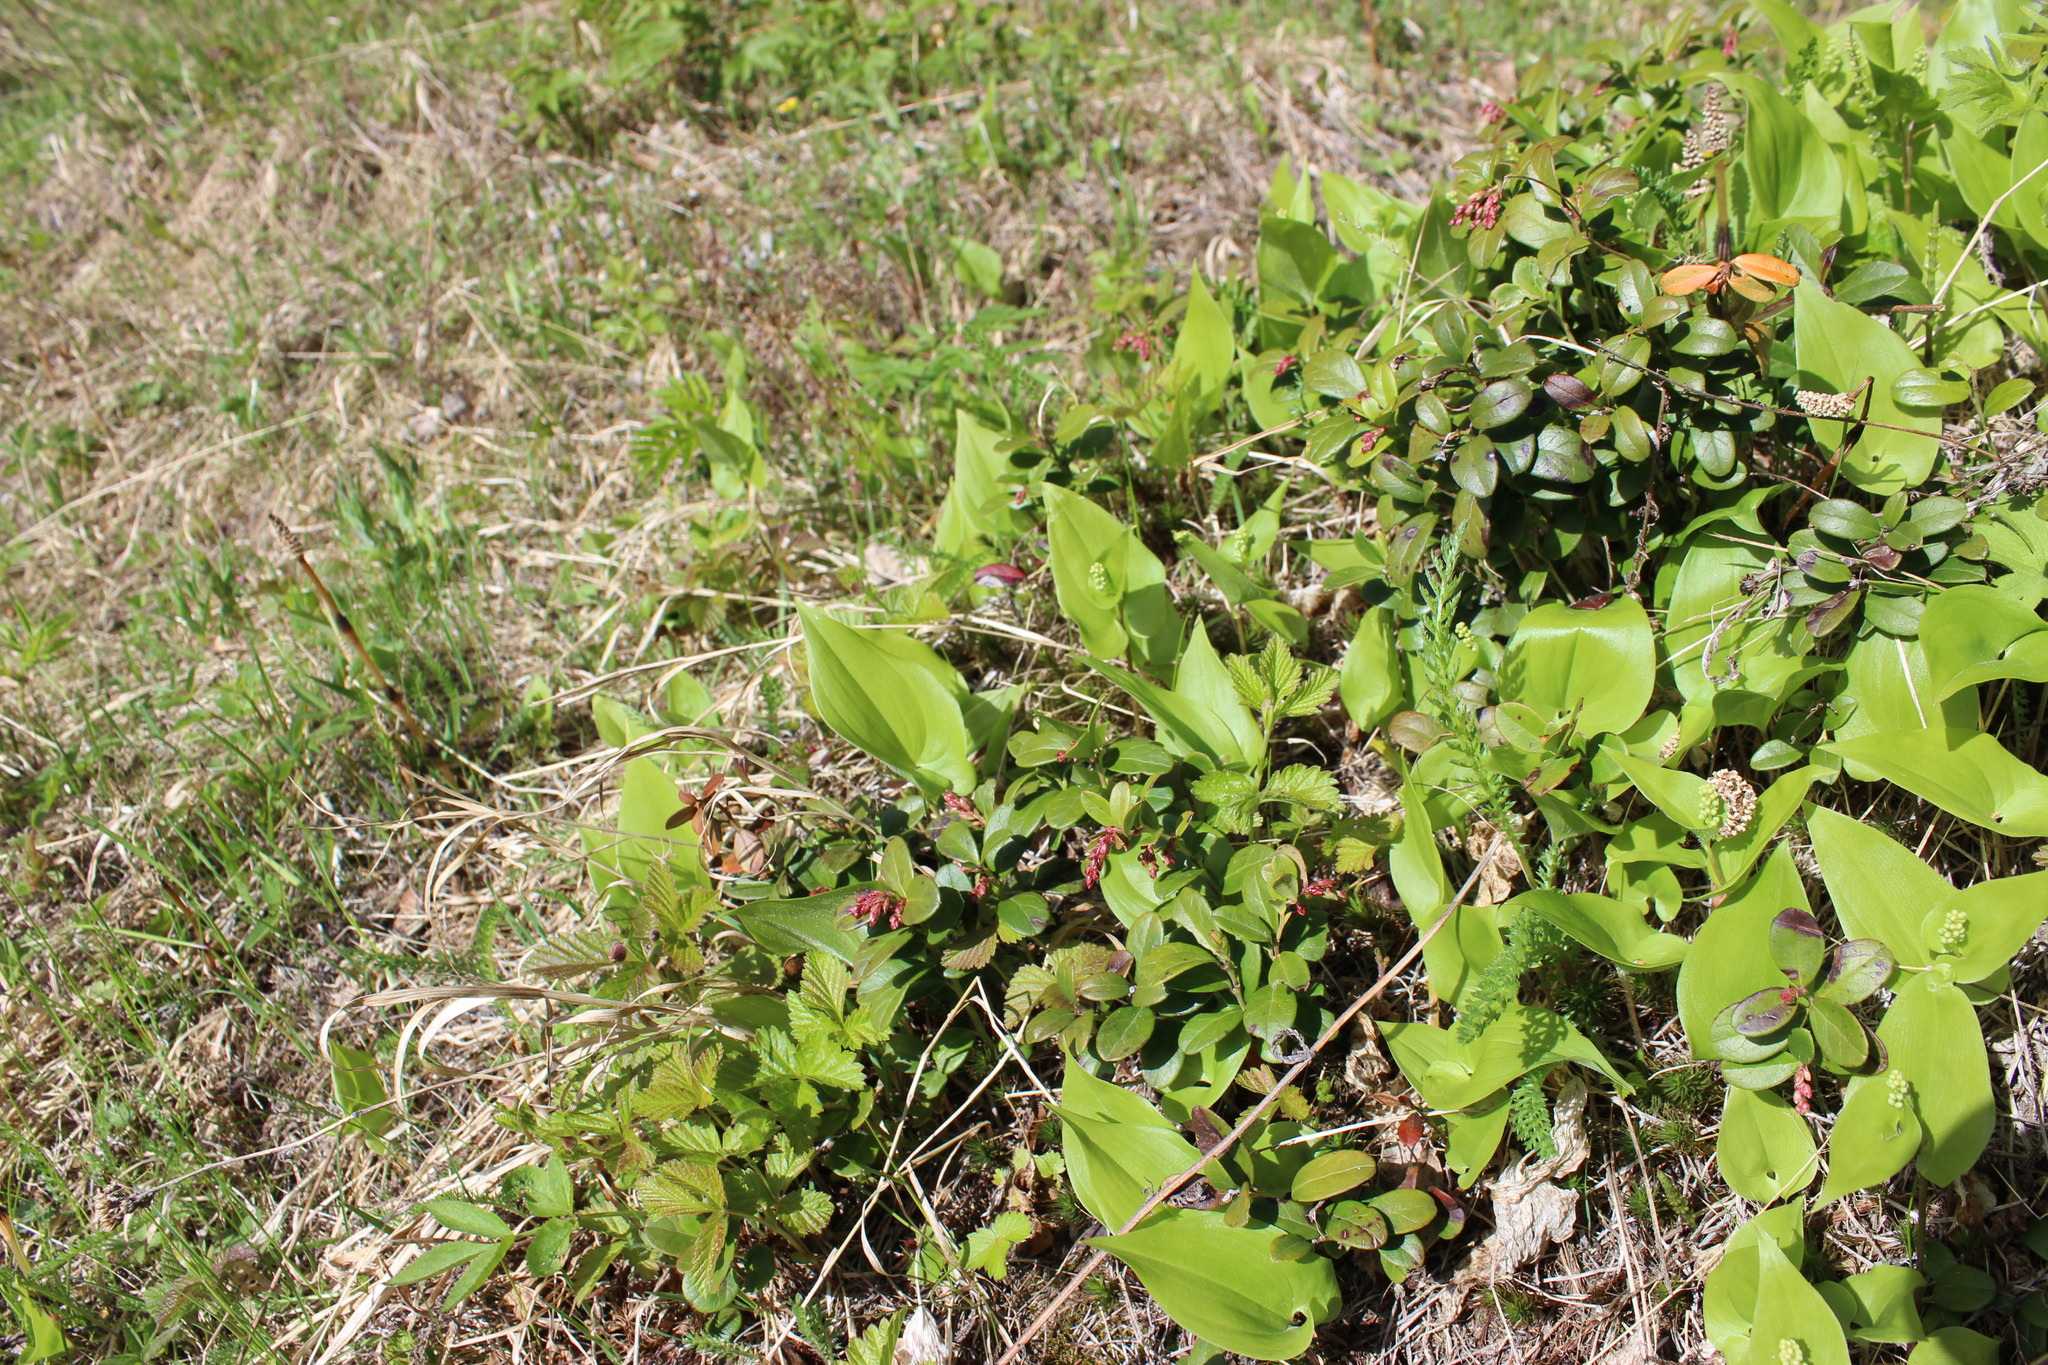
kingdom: Plantae
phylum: Tracheophyta
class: Liliopsida
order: Asparagales
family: Asparagaceae
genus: Maianthemum
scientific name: Maianthemum bifolium
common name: May lily
